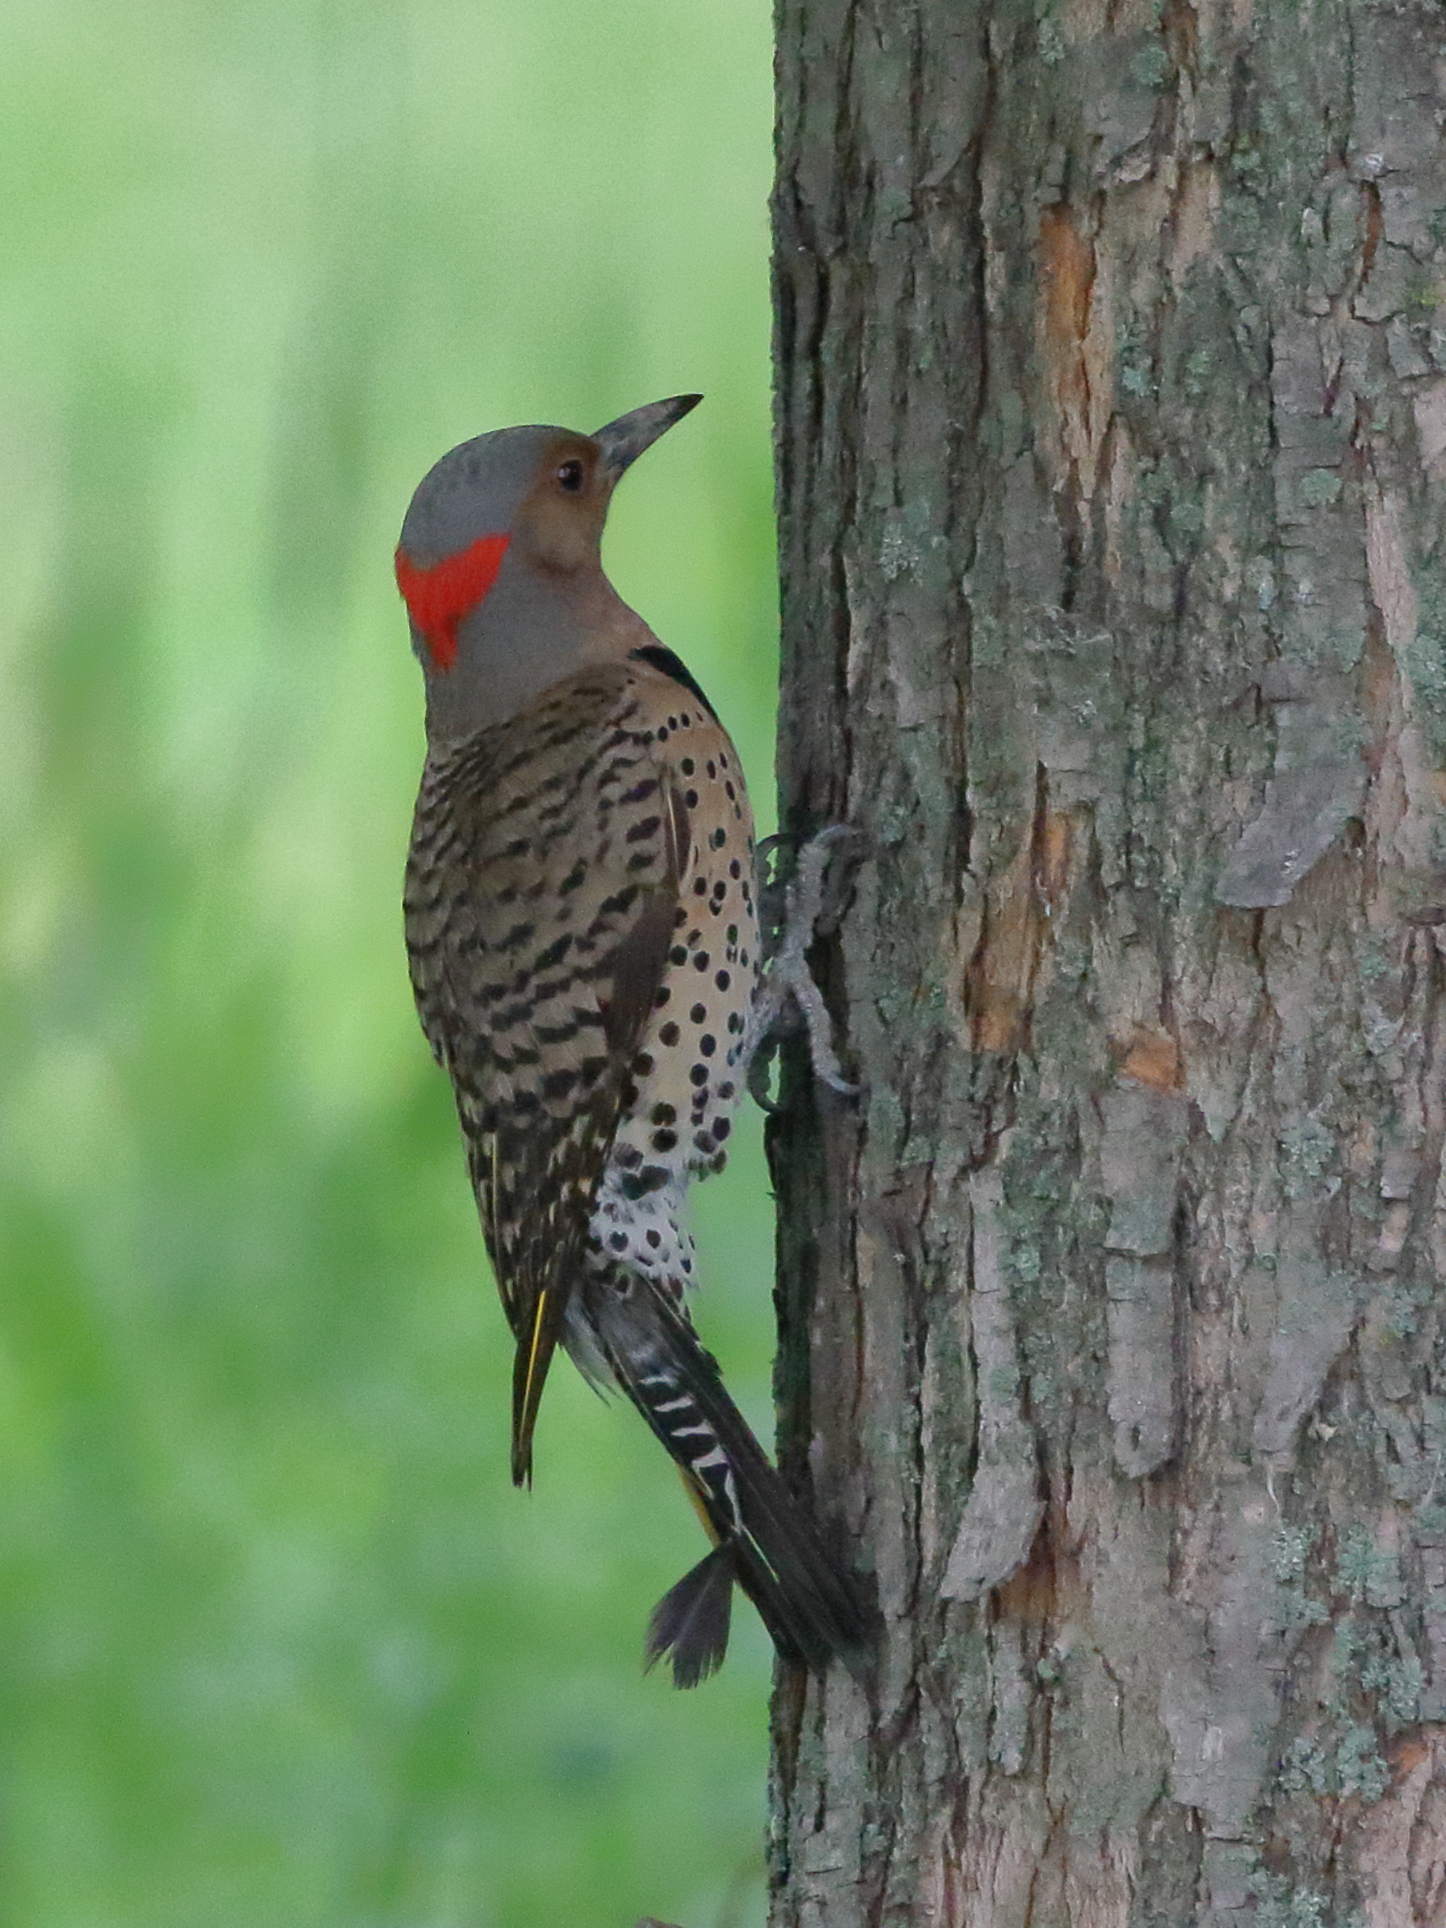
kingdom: Animalia
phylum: Chordata
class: Aves
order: Piciformes
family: Picidae
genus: Colaptes
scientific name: Colaptes auratus
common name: Northern flicker
